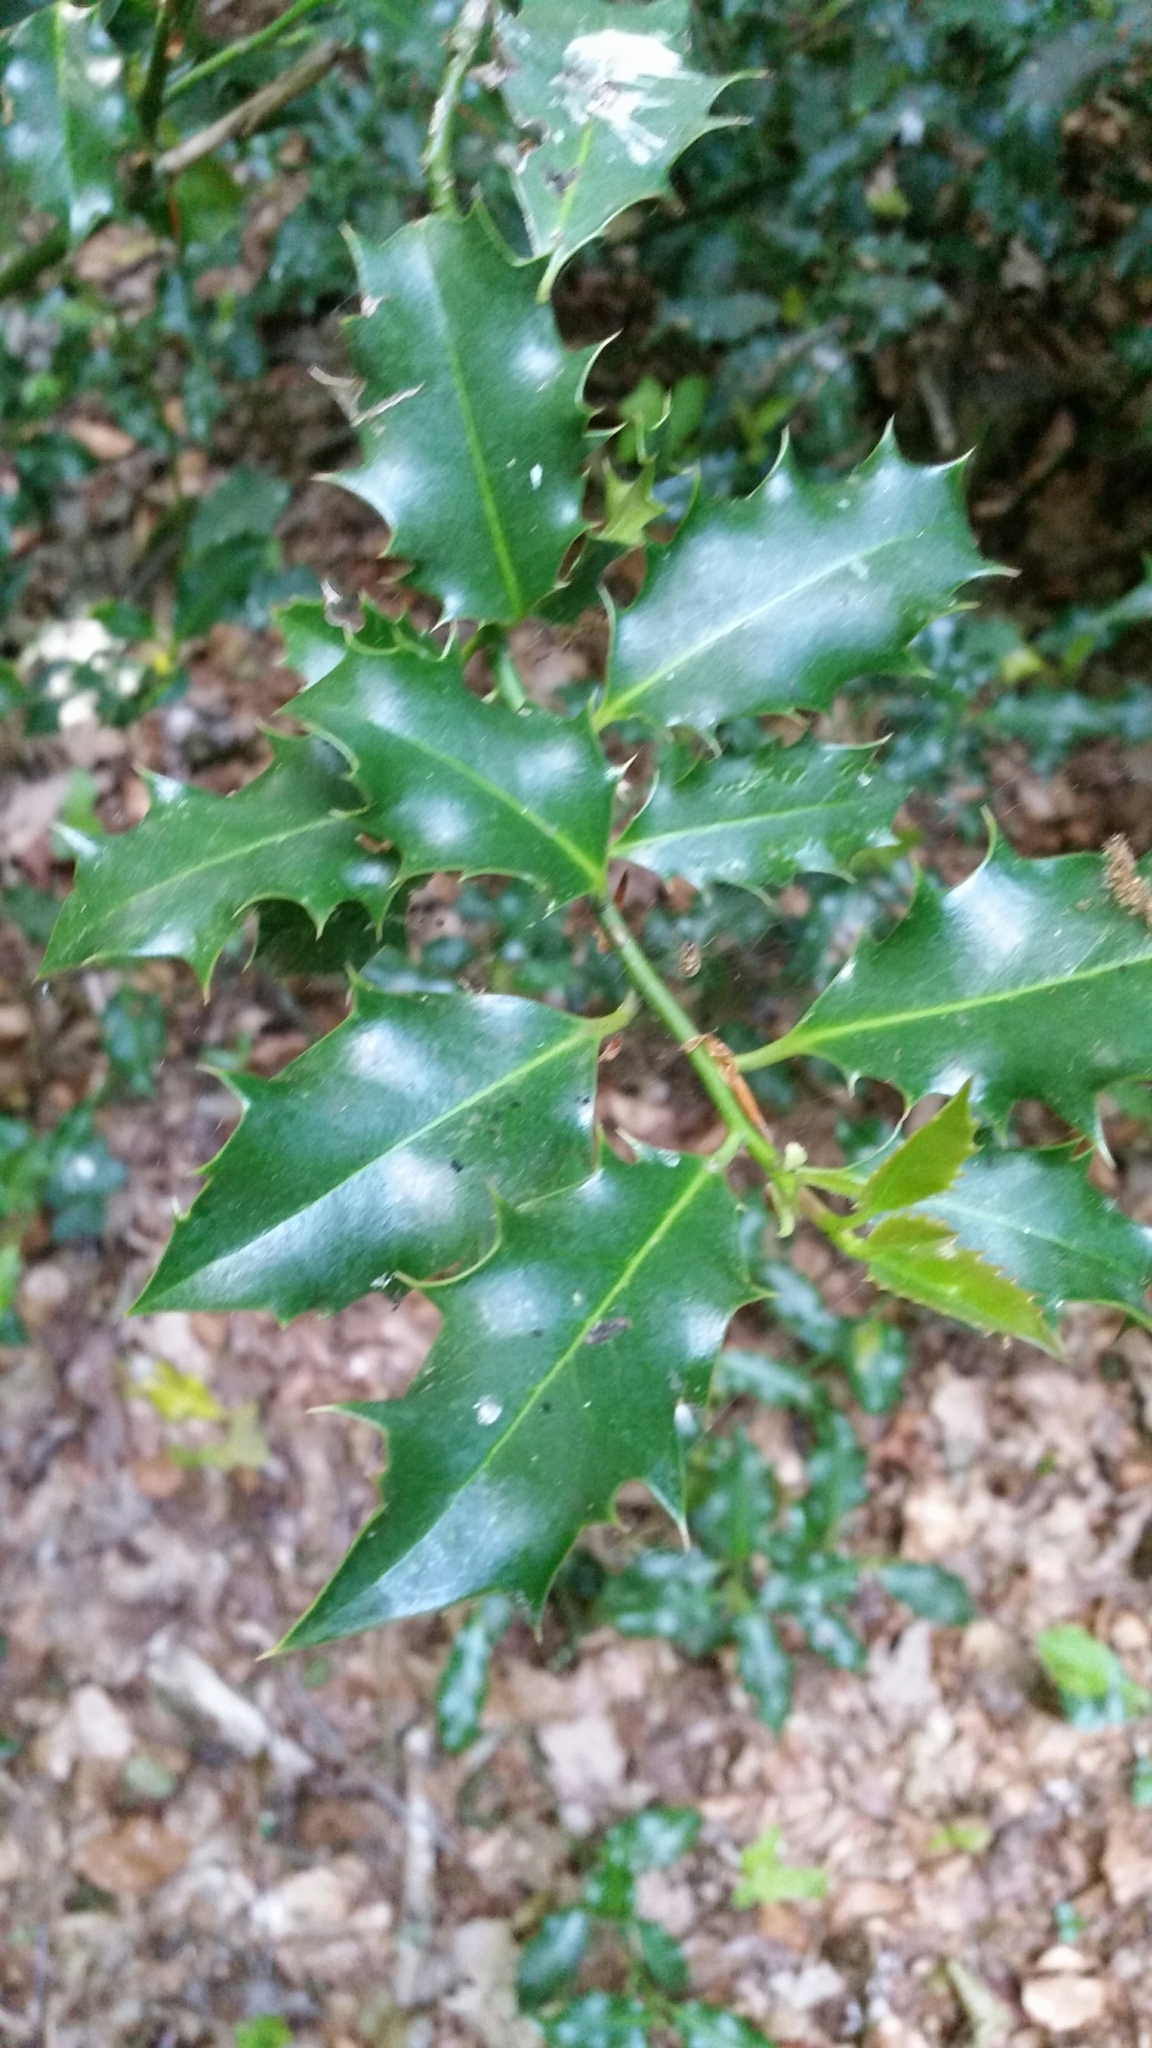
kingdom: Plantae
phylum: Tracheophyta
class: Magnoliopsida
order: Aquifoliales
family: Aquifoliaceae
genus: Ilex
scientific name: Ilex aquifolium
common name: English holly
